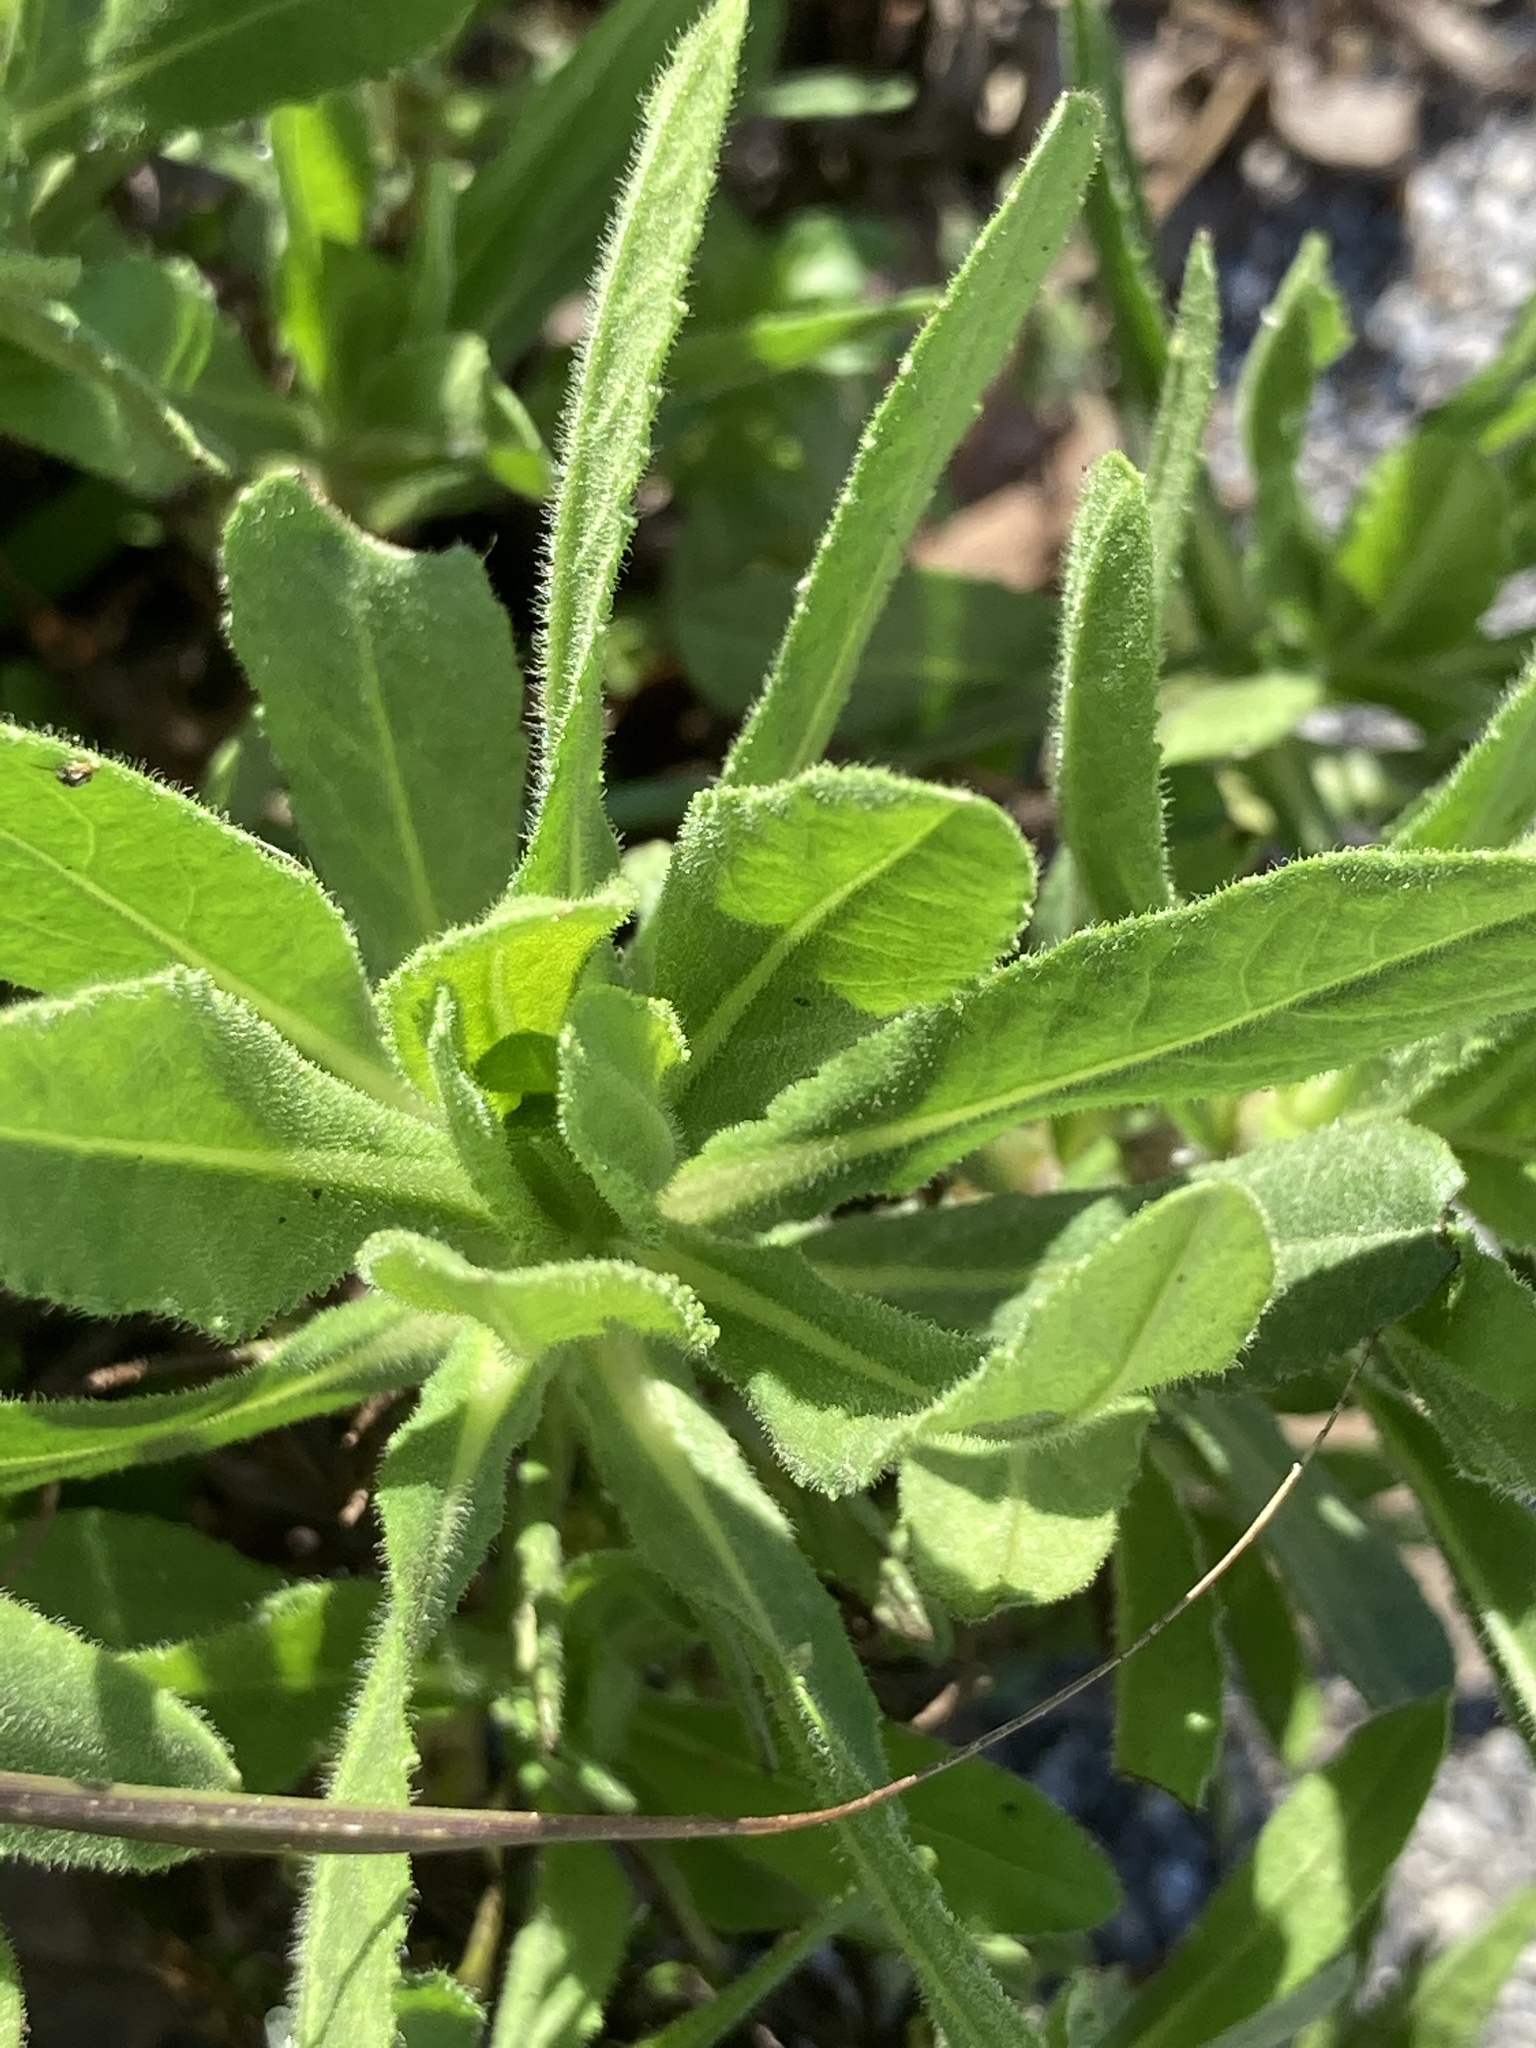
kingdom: Plantae
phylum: Tracheophyta
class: Magnoliopsida
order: Asterales
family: Asteraceae
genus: Calendula
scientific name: Calendula arvensis
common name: Field marigold
